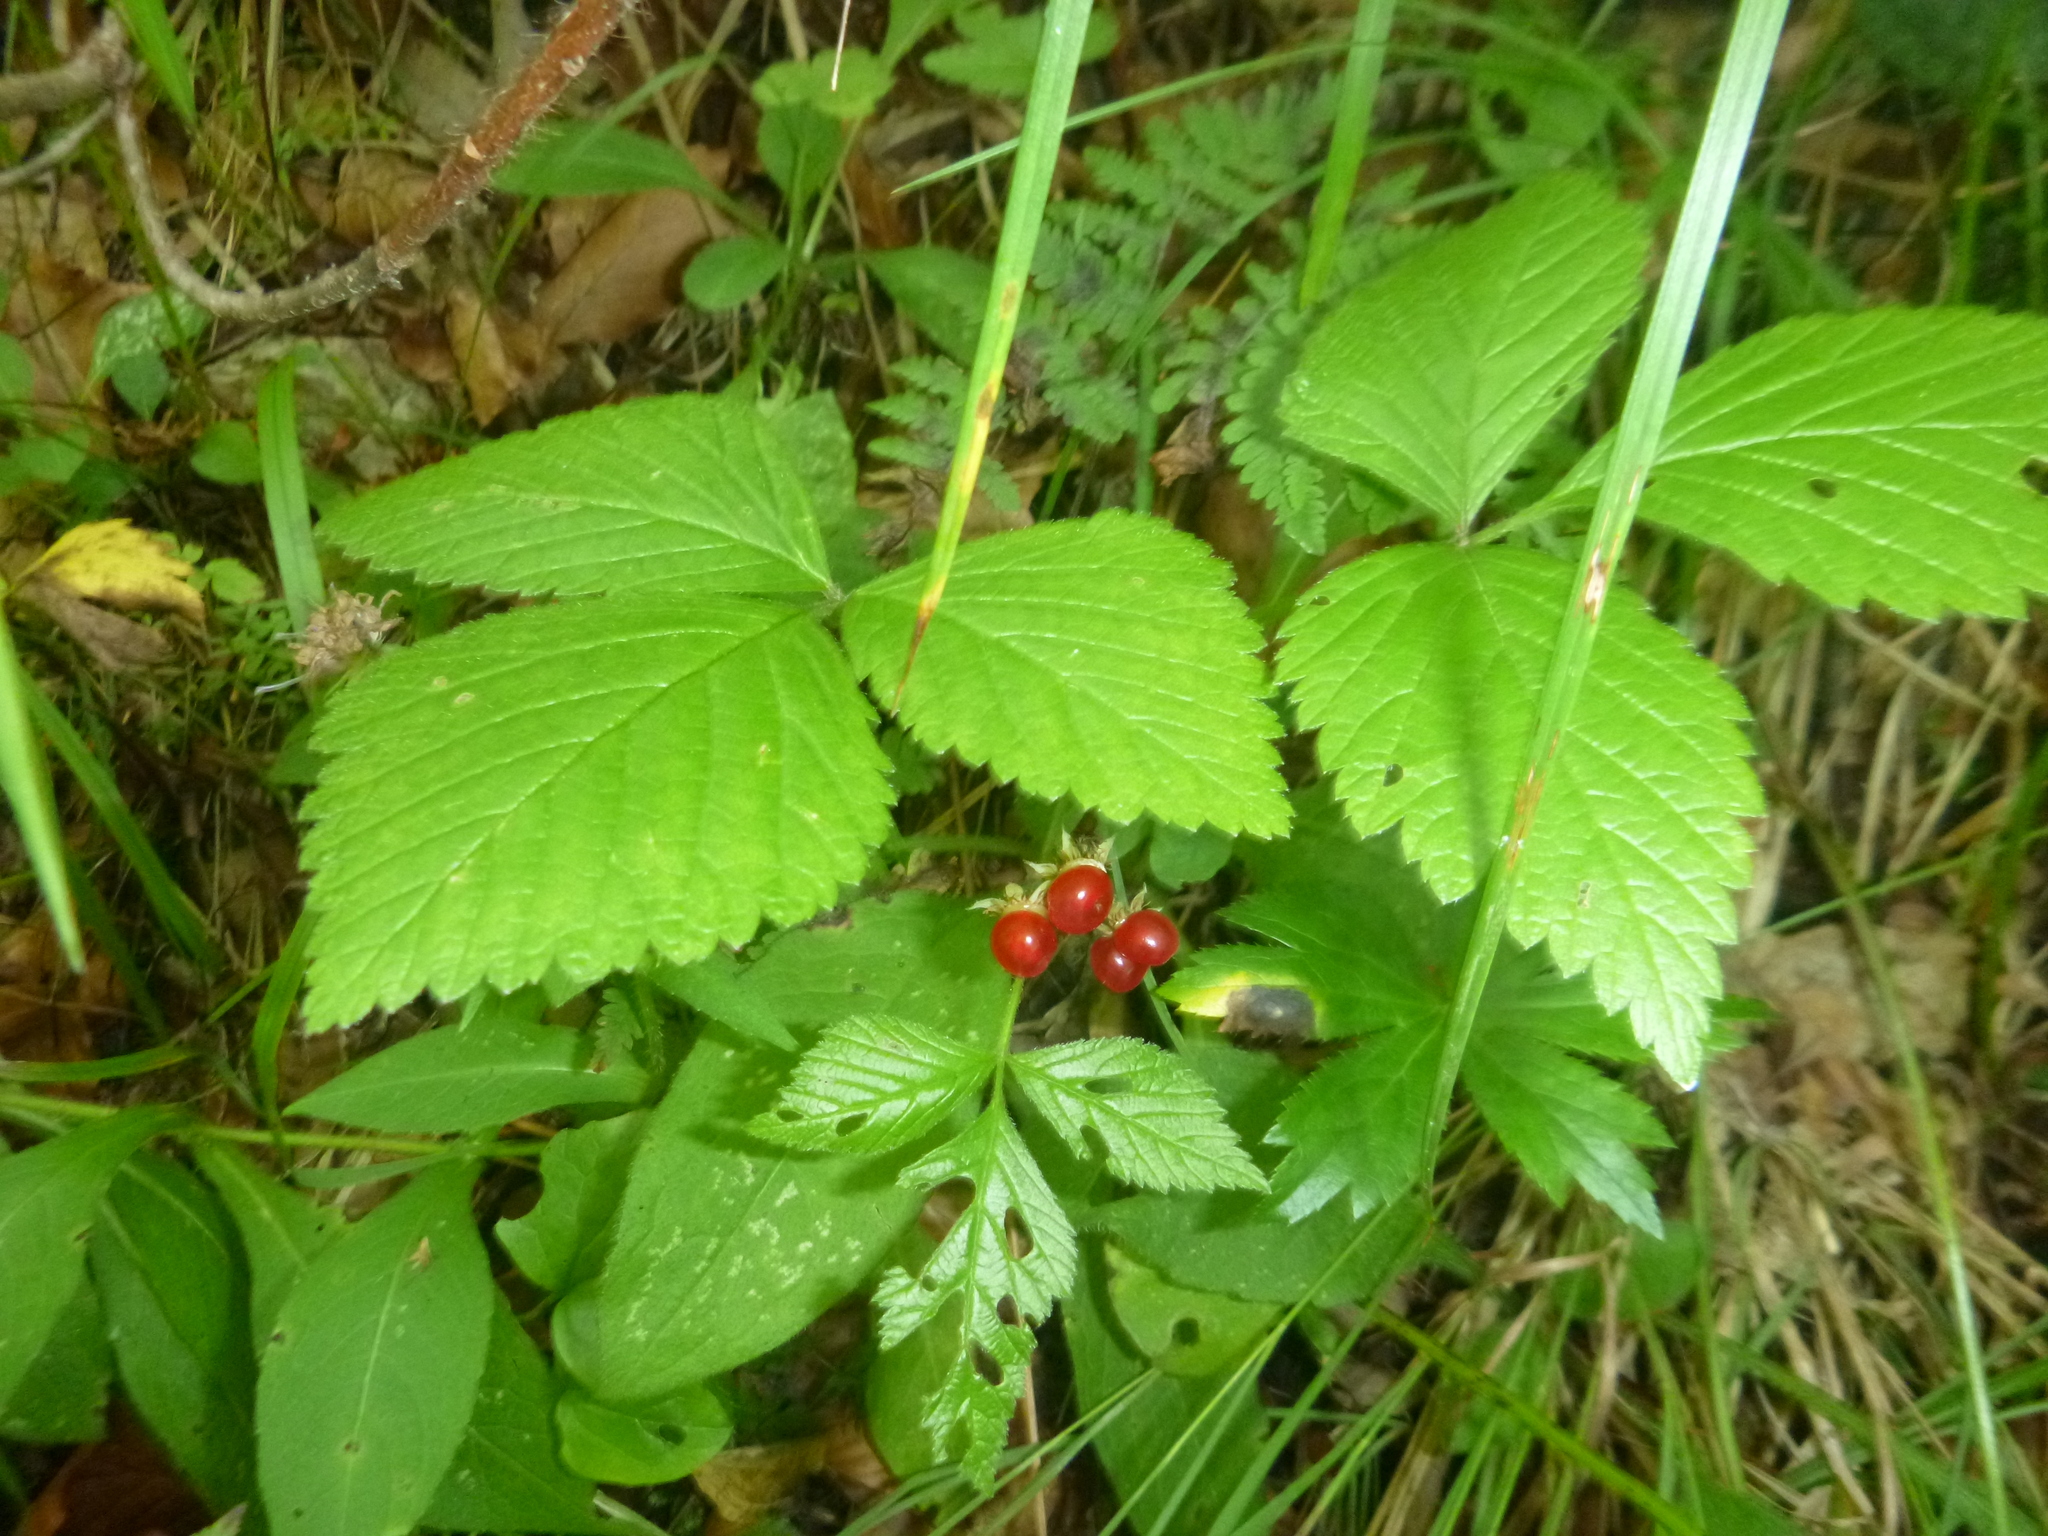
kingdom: Plantae
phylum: Tracheophyta
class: Magnoliopsida
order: Rosales
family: Rosaceae
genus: Rubus
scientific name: Rubus saxatilis
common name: Stone bramble
